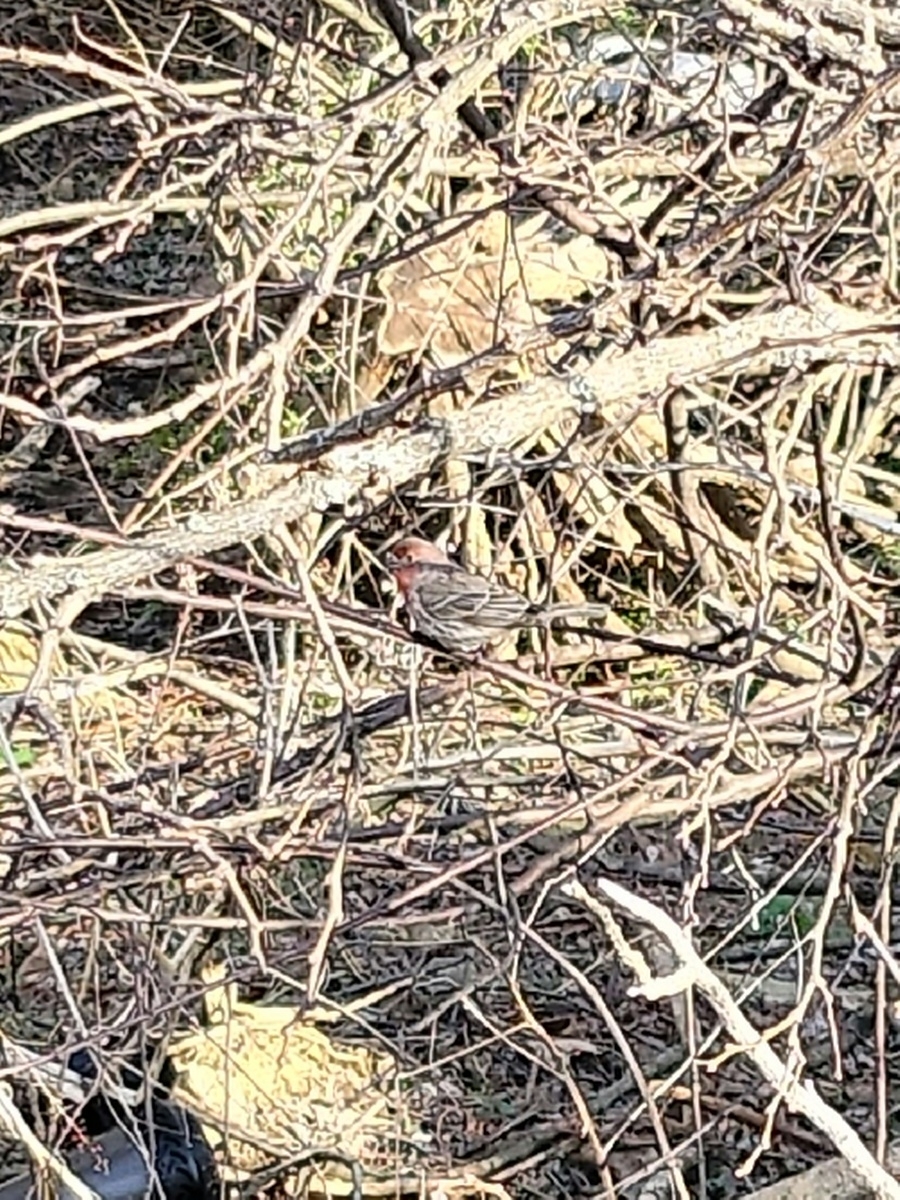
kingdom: Animalia
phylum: Chordata
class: Aves
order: Passeriformes
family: Fringillidae
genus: Haemorhous
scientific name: Haemorhous mexicanus
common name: House finch
